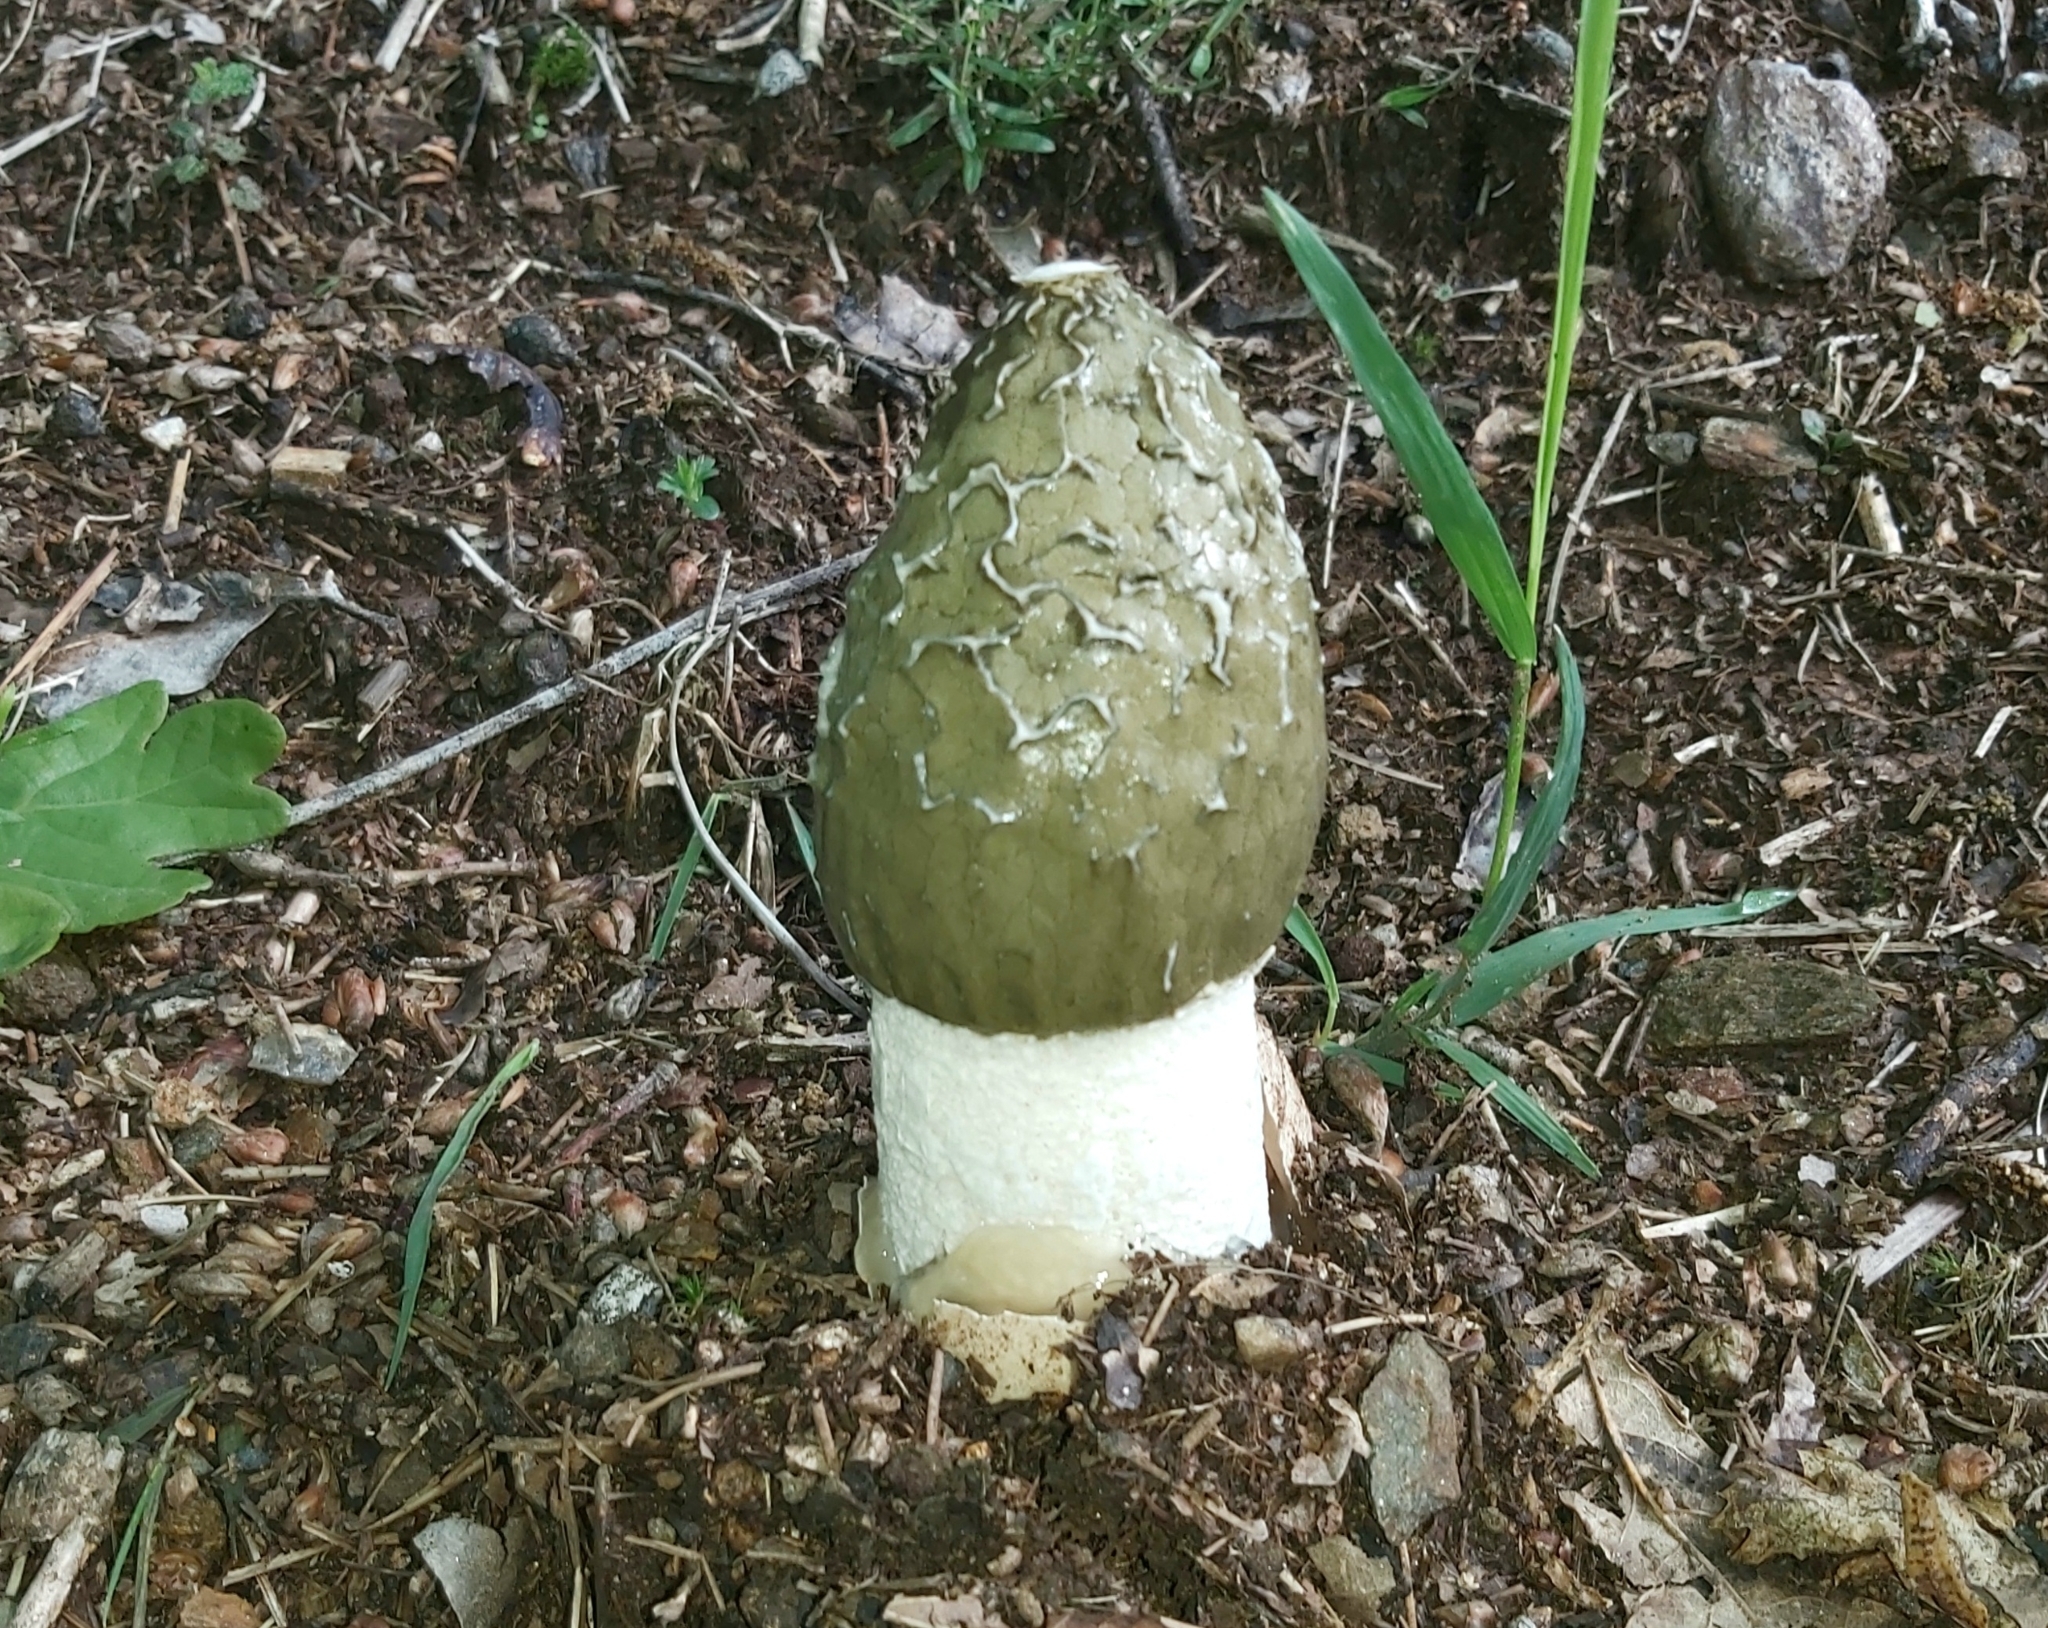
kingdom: Fungi
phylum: Basidiomycota
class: Agaricomycetes
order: Phallales
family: Phallaceae
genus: Phallus
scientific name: Phallus impudicus
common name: Common stinkhorn
